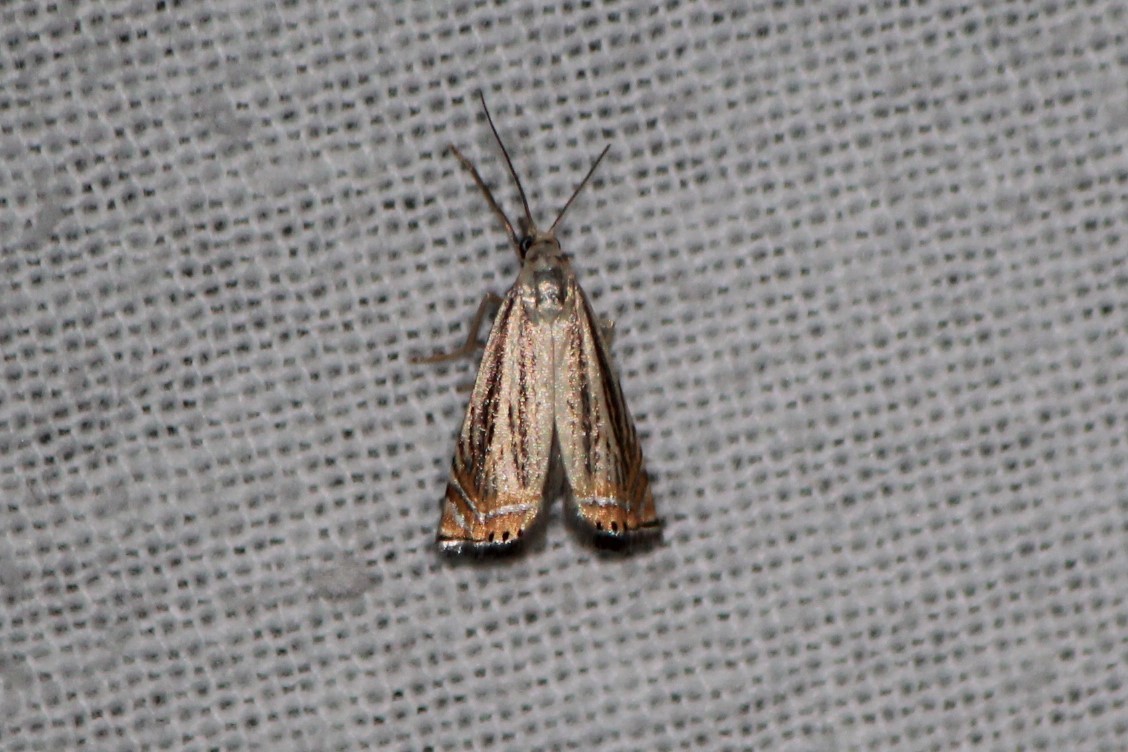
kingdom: Animalia
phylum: Arthropoda
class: Insecta
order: Lepidoptera
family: Crambidae
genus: Chrysoteuchia
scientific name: Chrysoteuchia topiarius
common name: Topiary grass-veneer
